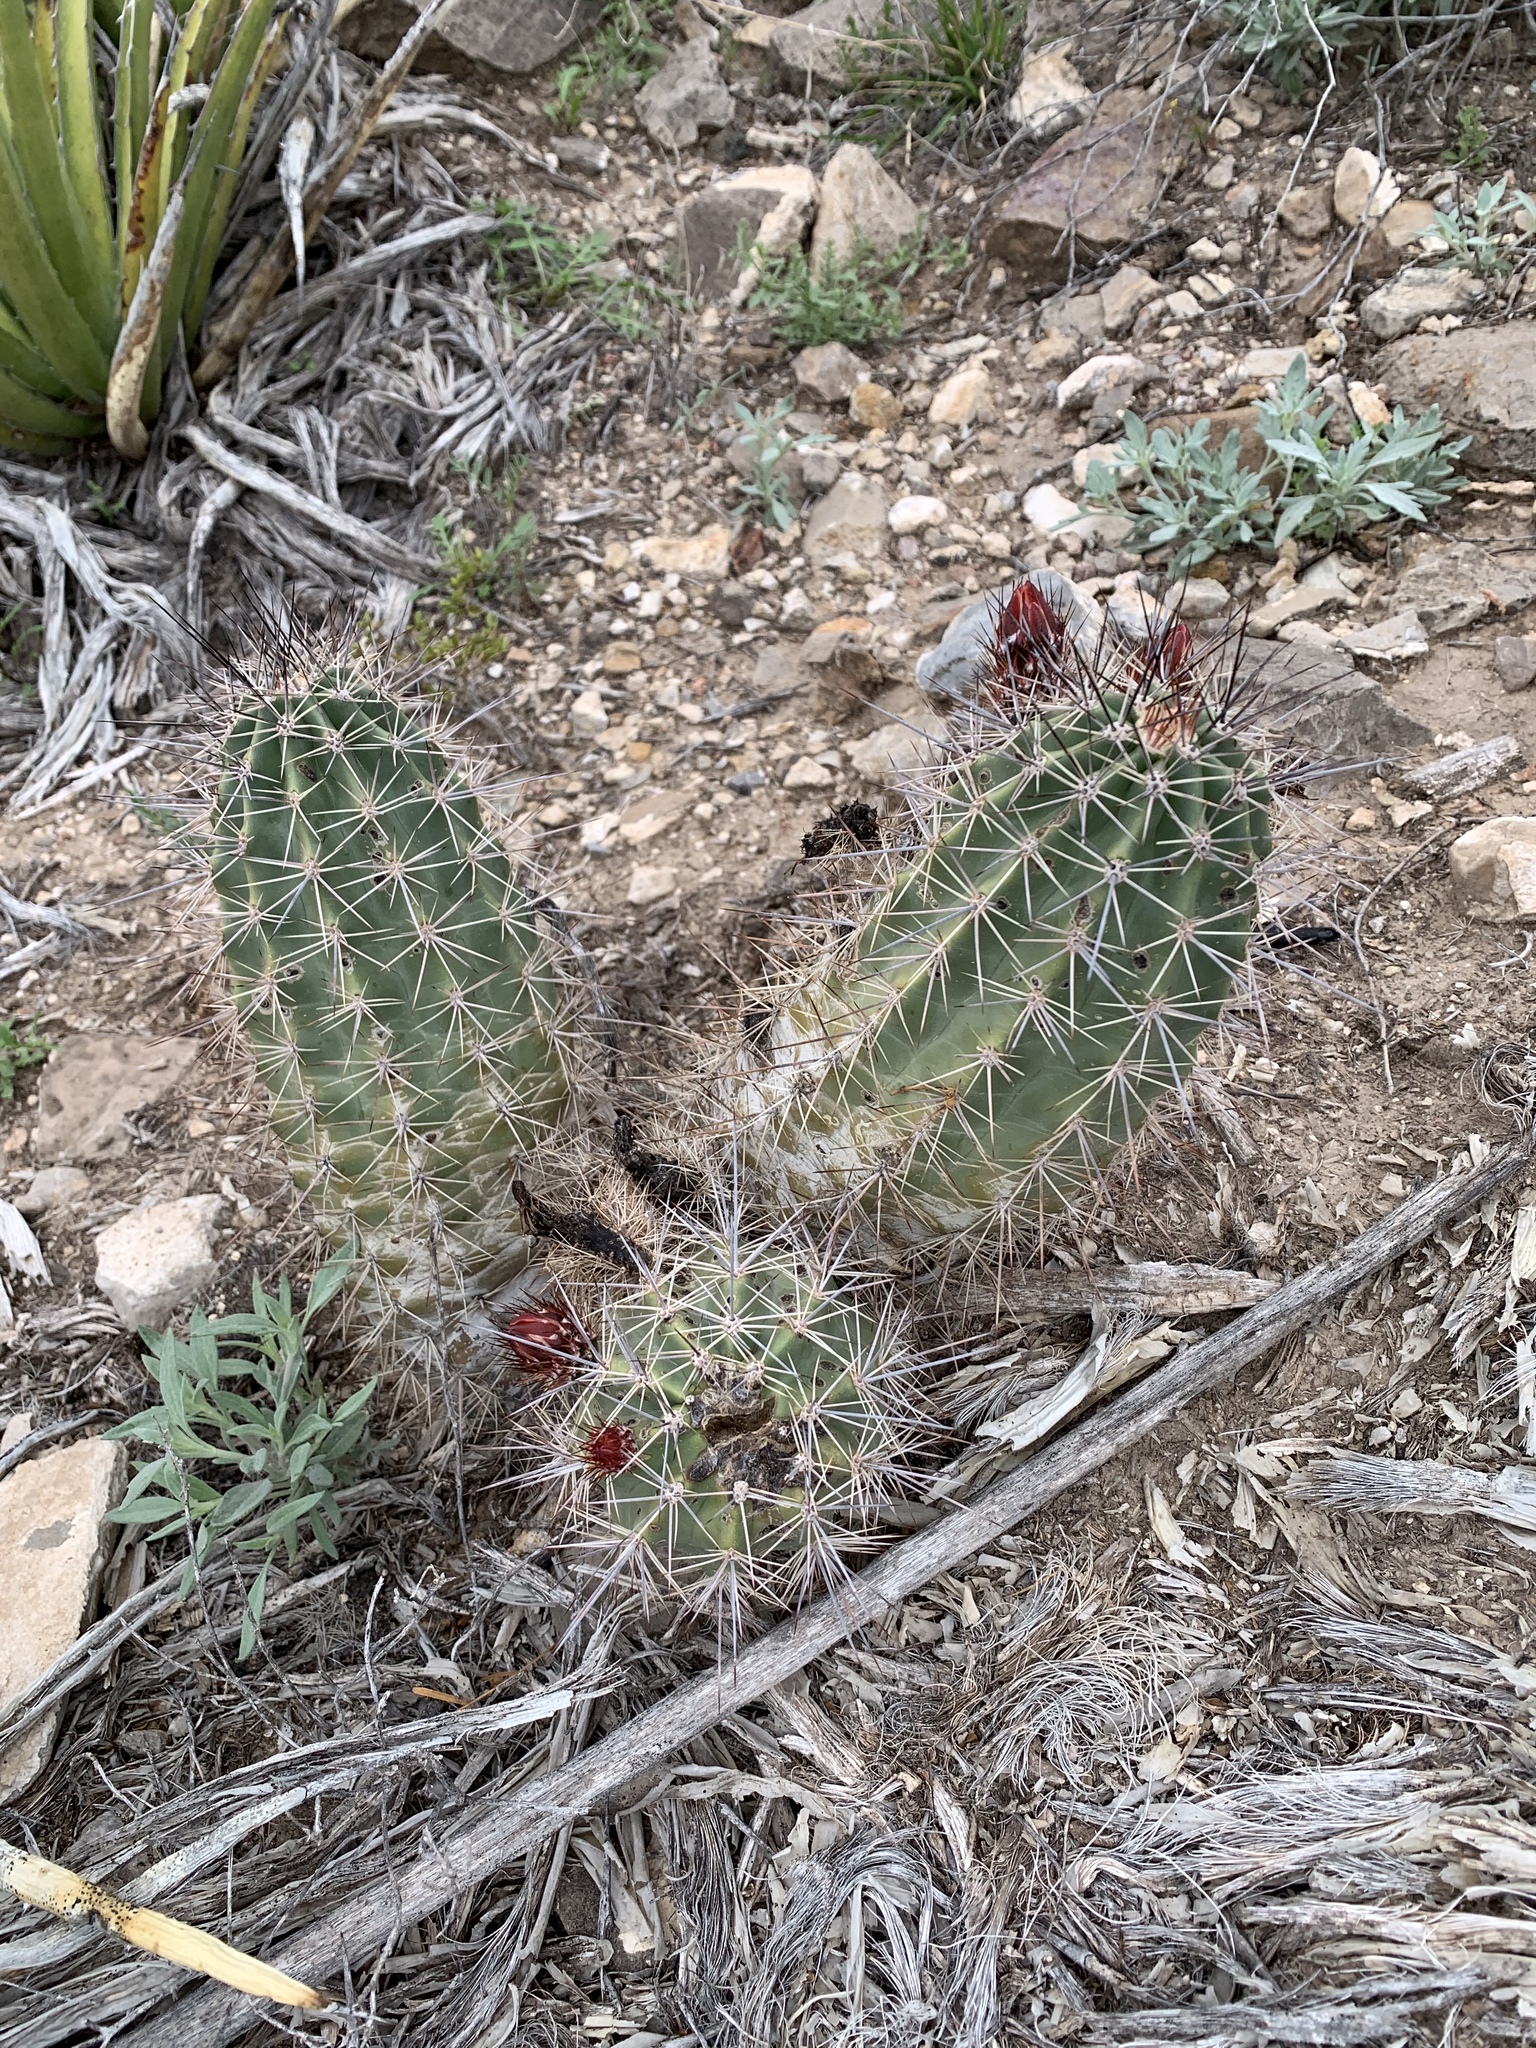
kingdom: Plantae
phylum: Tracheophyta
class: Magnoliopsida
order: Caryophyllales
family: Cactaceae
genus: Echinocereus
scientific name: Echinocereus coccineus
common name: Scarlet hedgehog cactus
